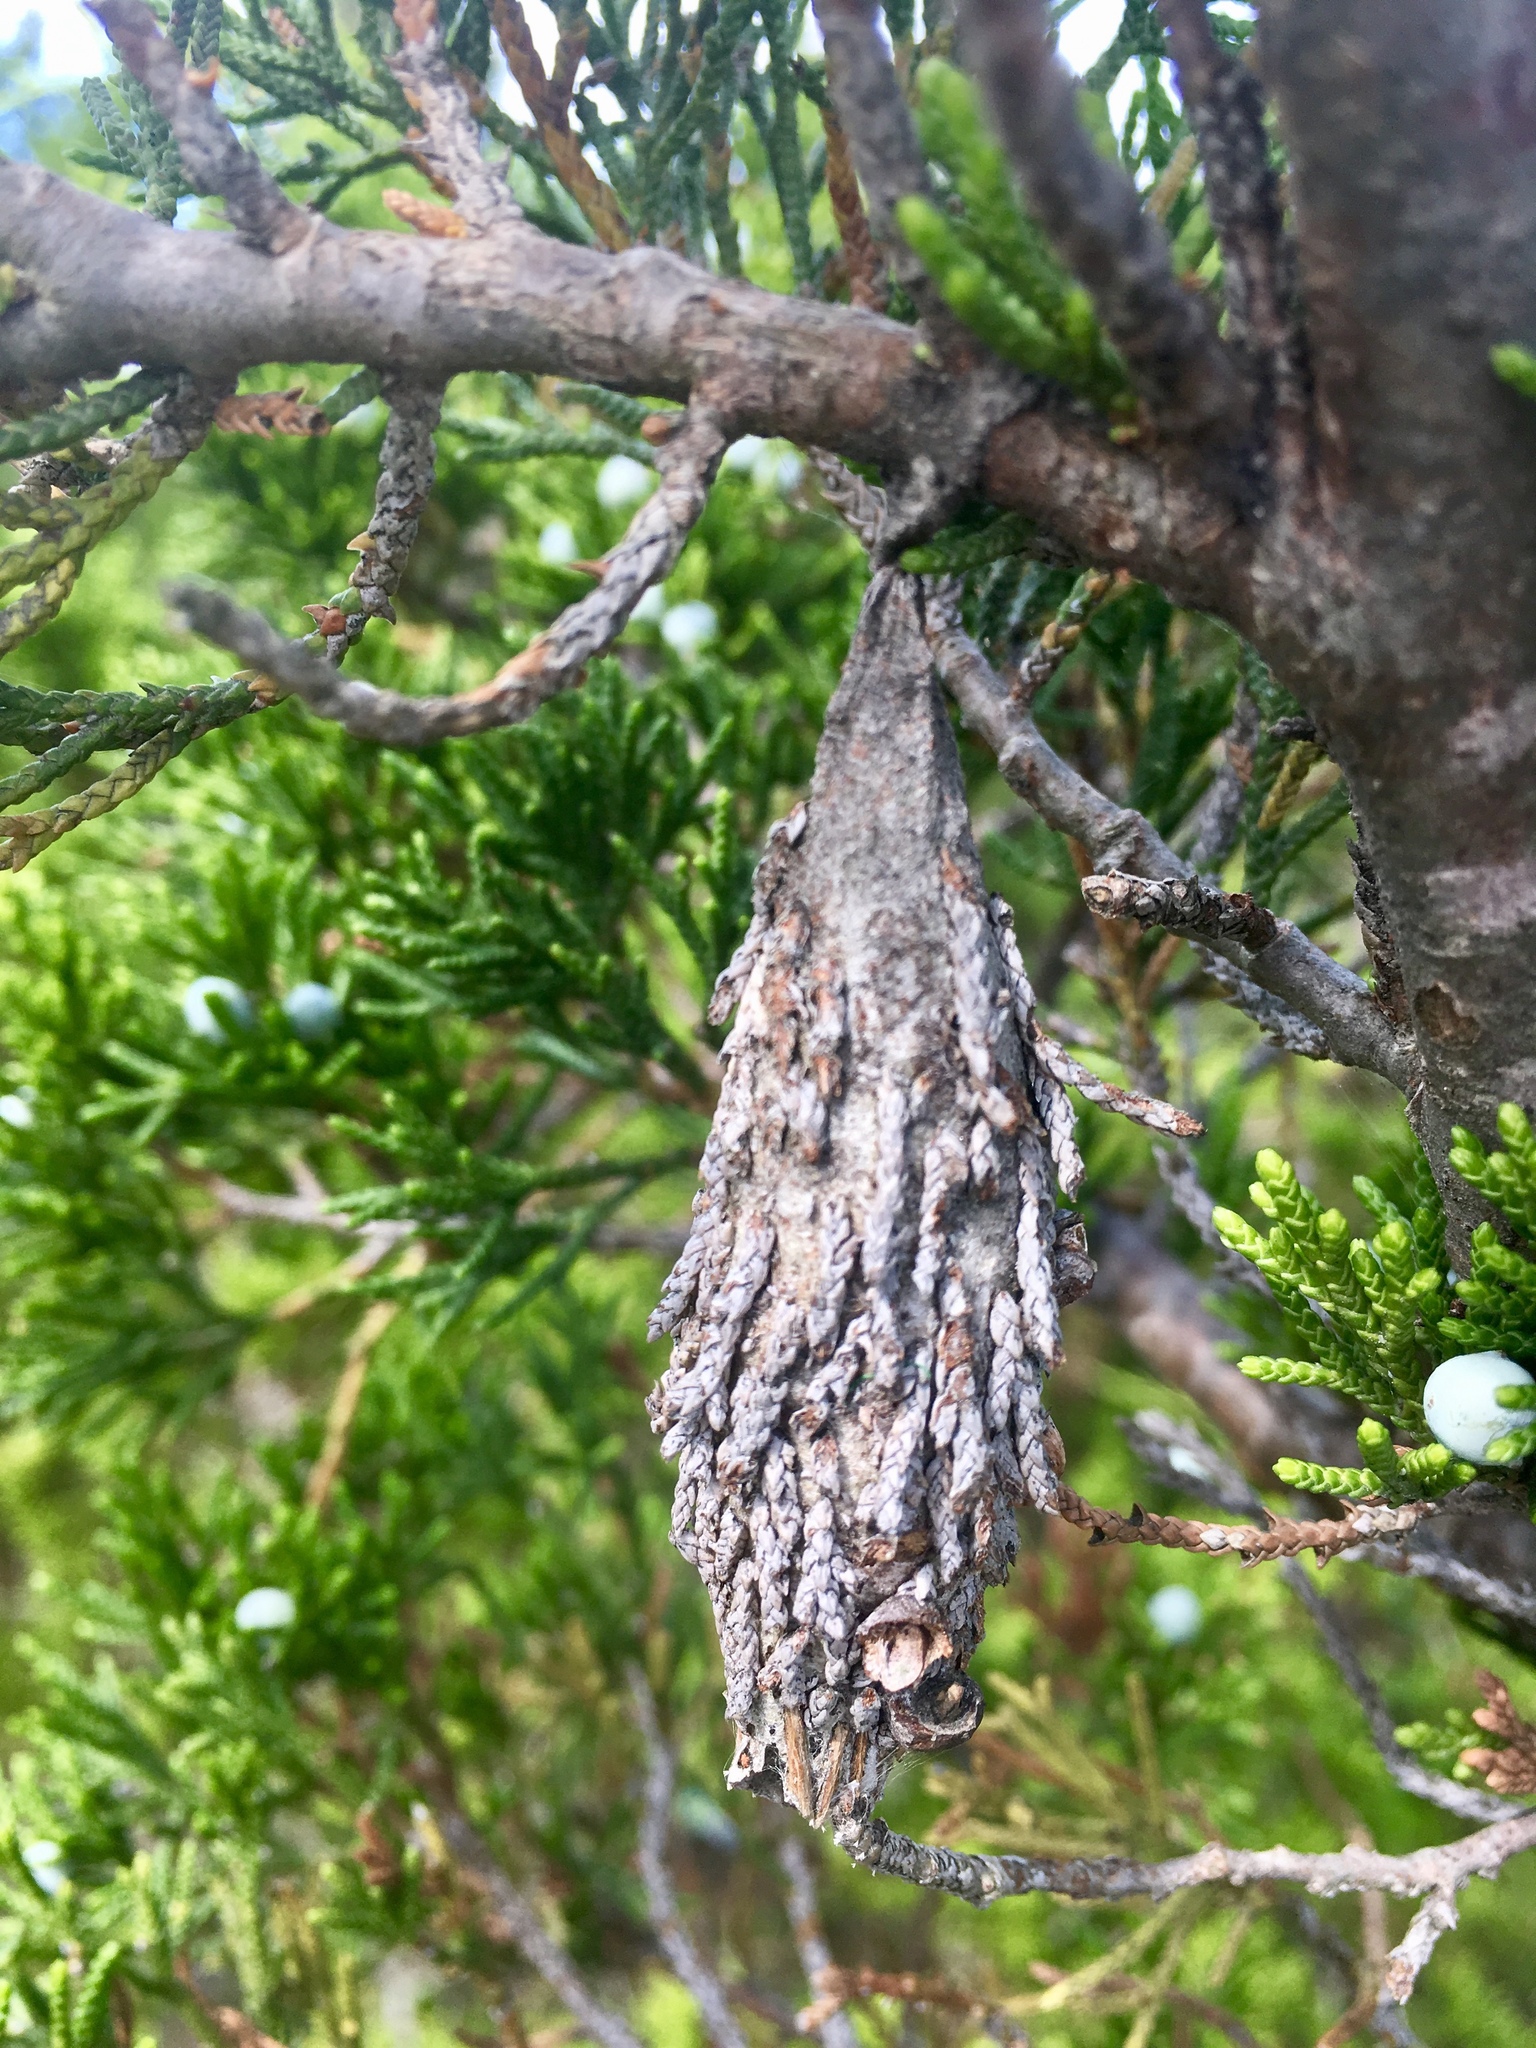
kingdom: Animalia
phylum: Arthropoda
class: Insecta
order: Lepidoptera
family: Psychidae
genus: Thyridopteryx
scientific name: Thyridopteryx ephemeraeformis
